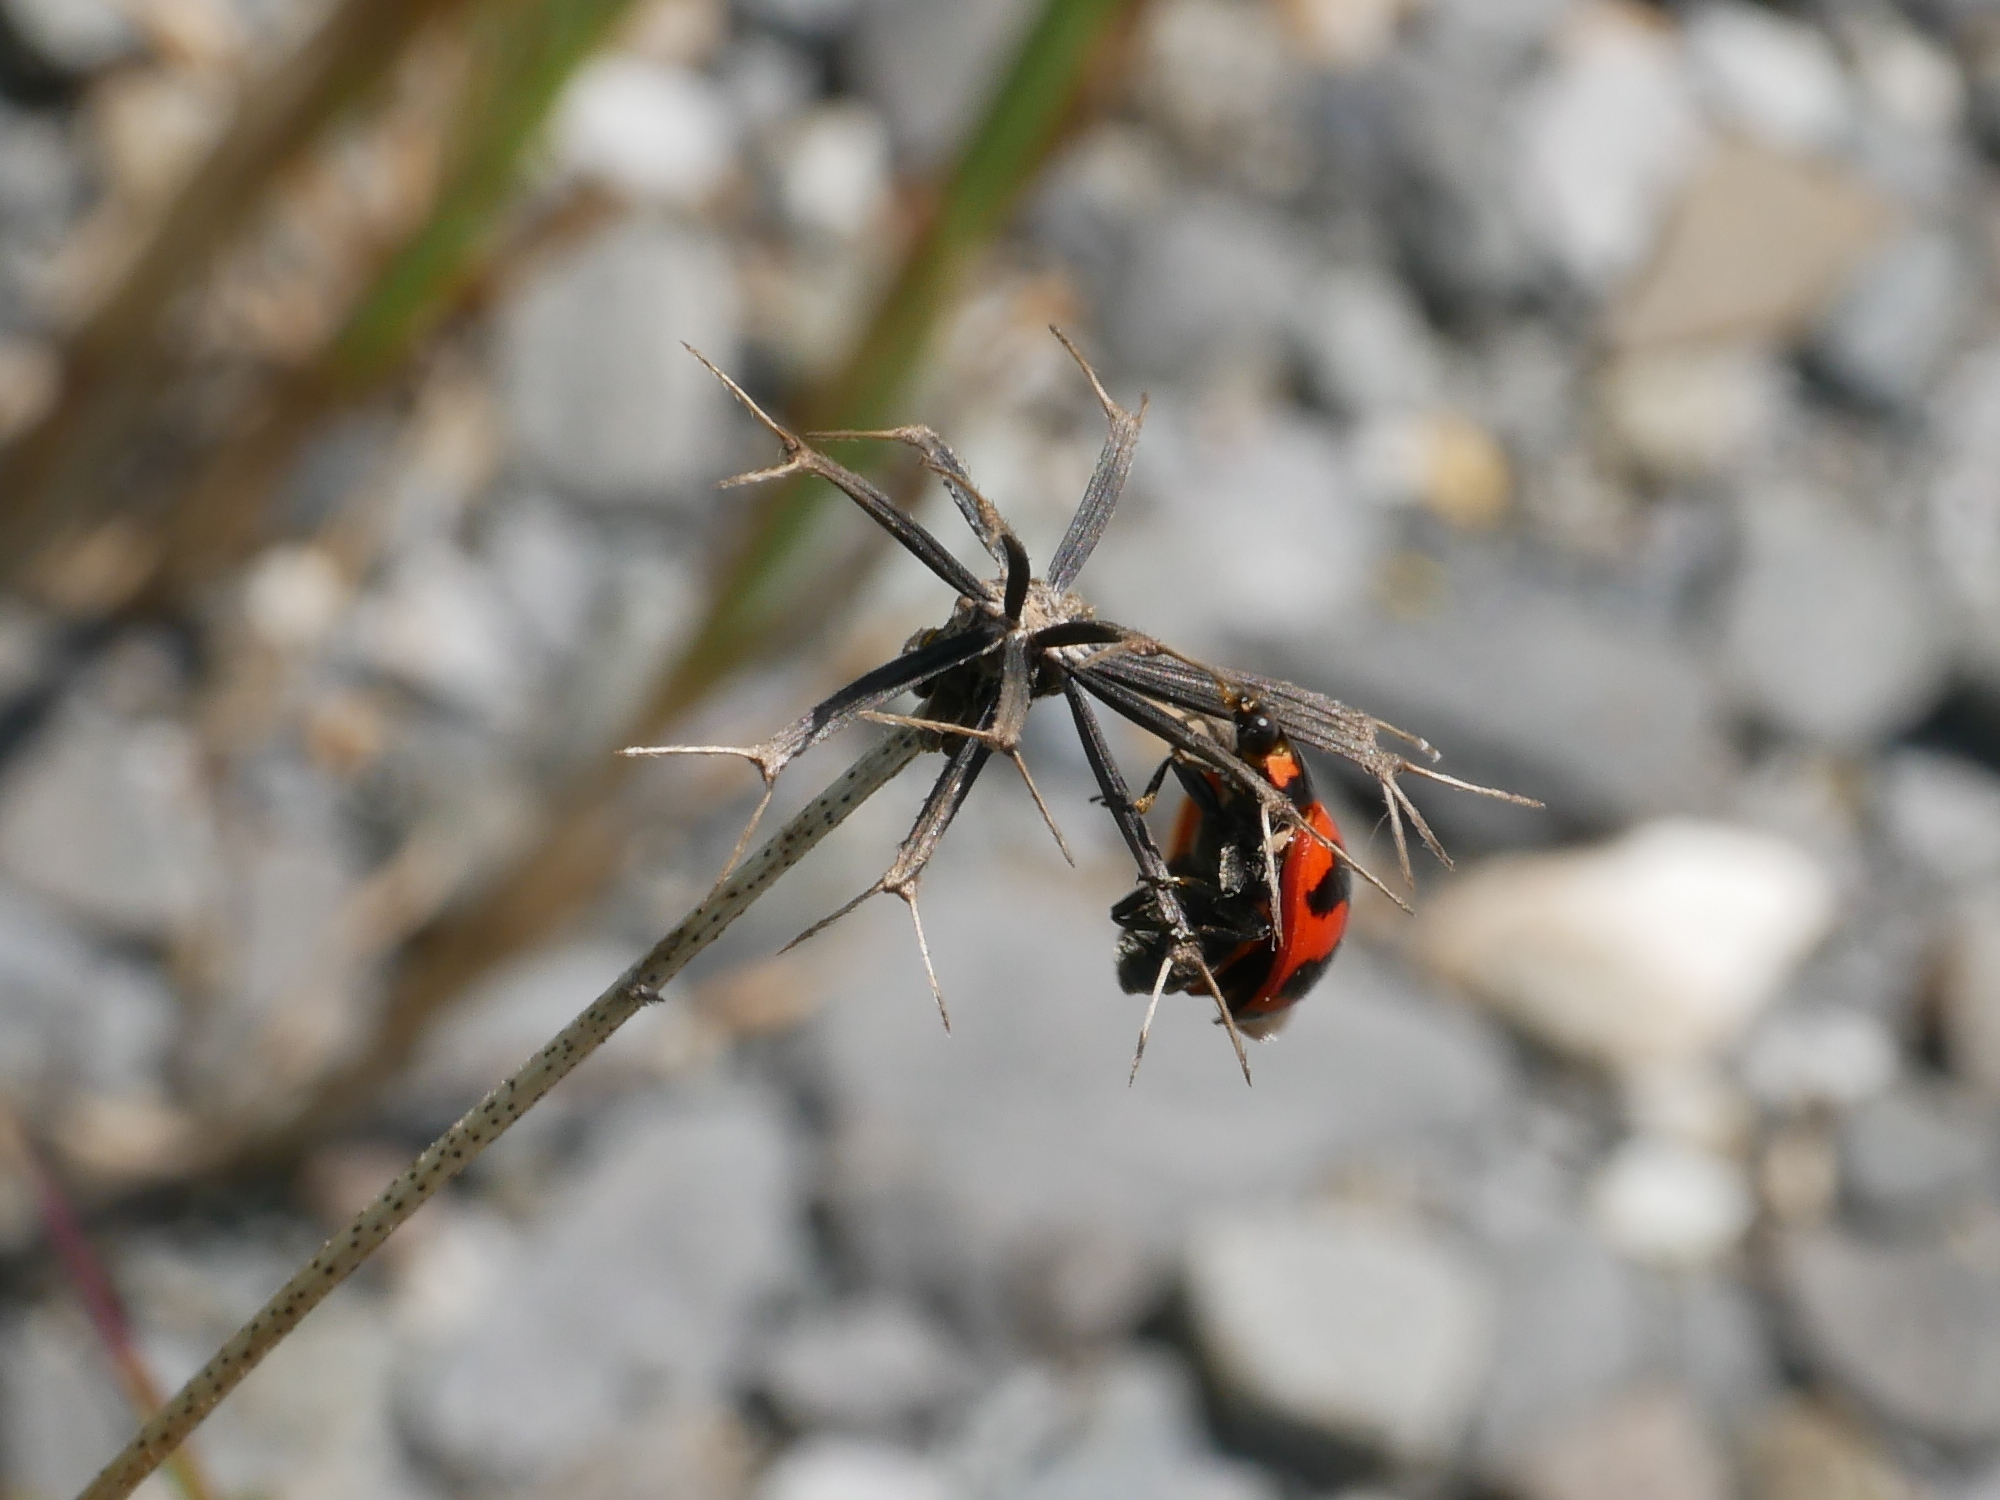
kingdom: Animalia
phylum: Arthropoda
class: Insecta
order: Coleoptera
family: Coccinellidae
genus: Coccinella
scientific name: Coccinella transversalis
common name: Transverse lady beetle
